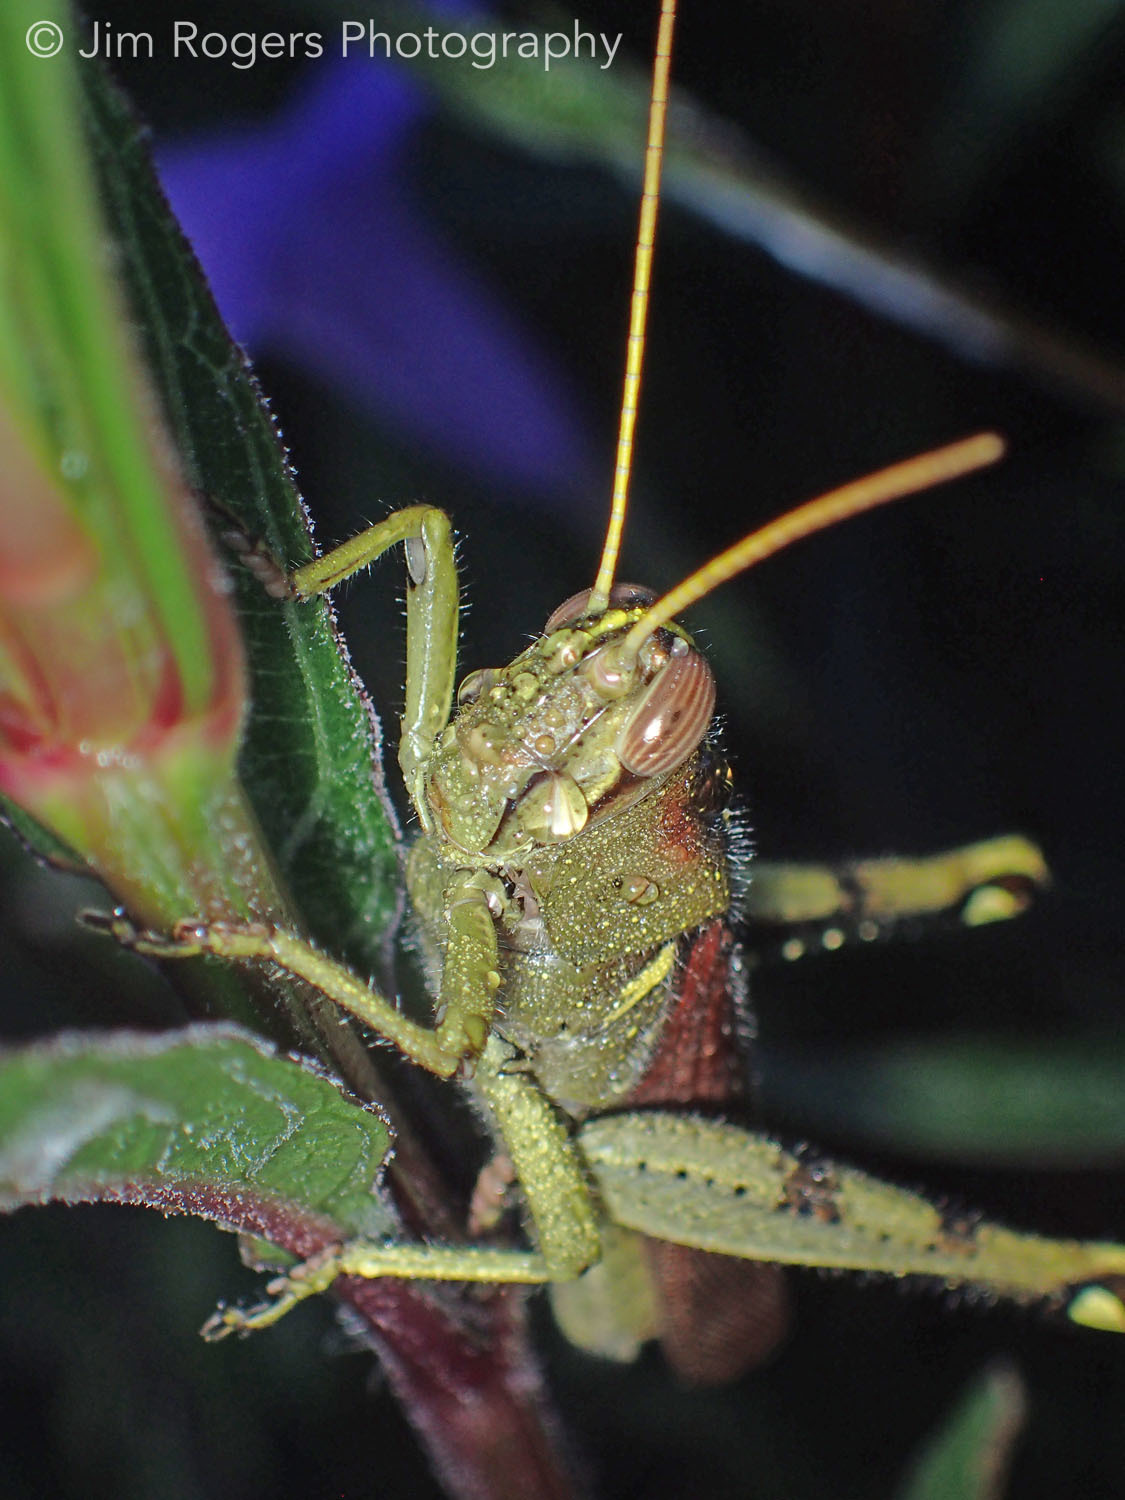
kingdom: Animalia
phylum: Arthropoda
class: Insecta
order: Orthoptera
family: Acrididae
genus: Schistocerca
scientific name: Schistocerca obscura
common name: Obscure bird grasshopper
